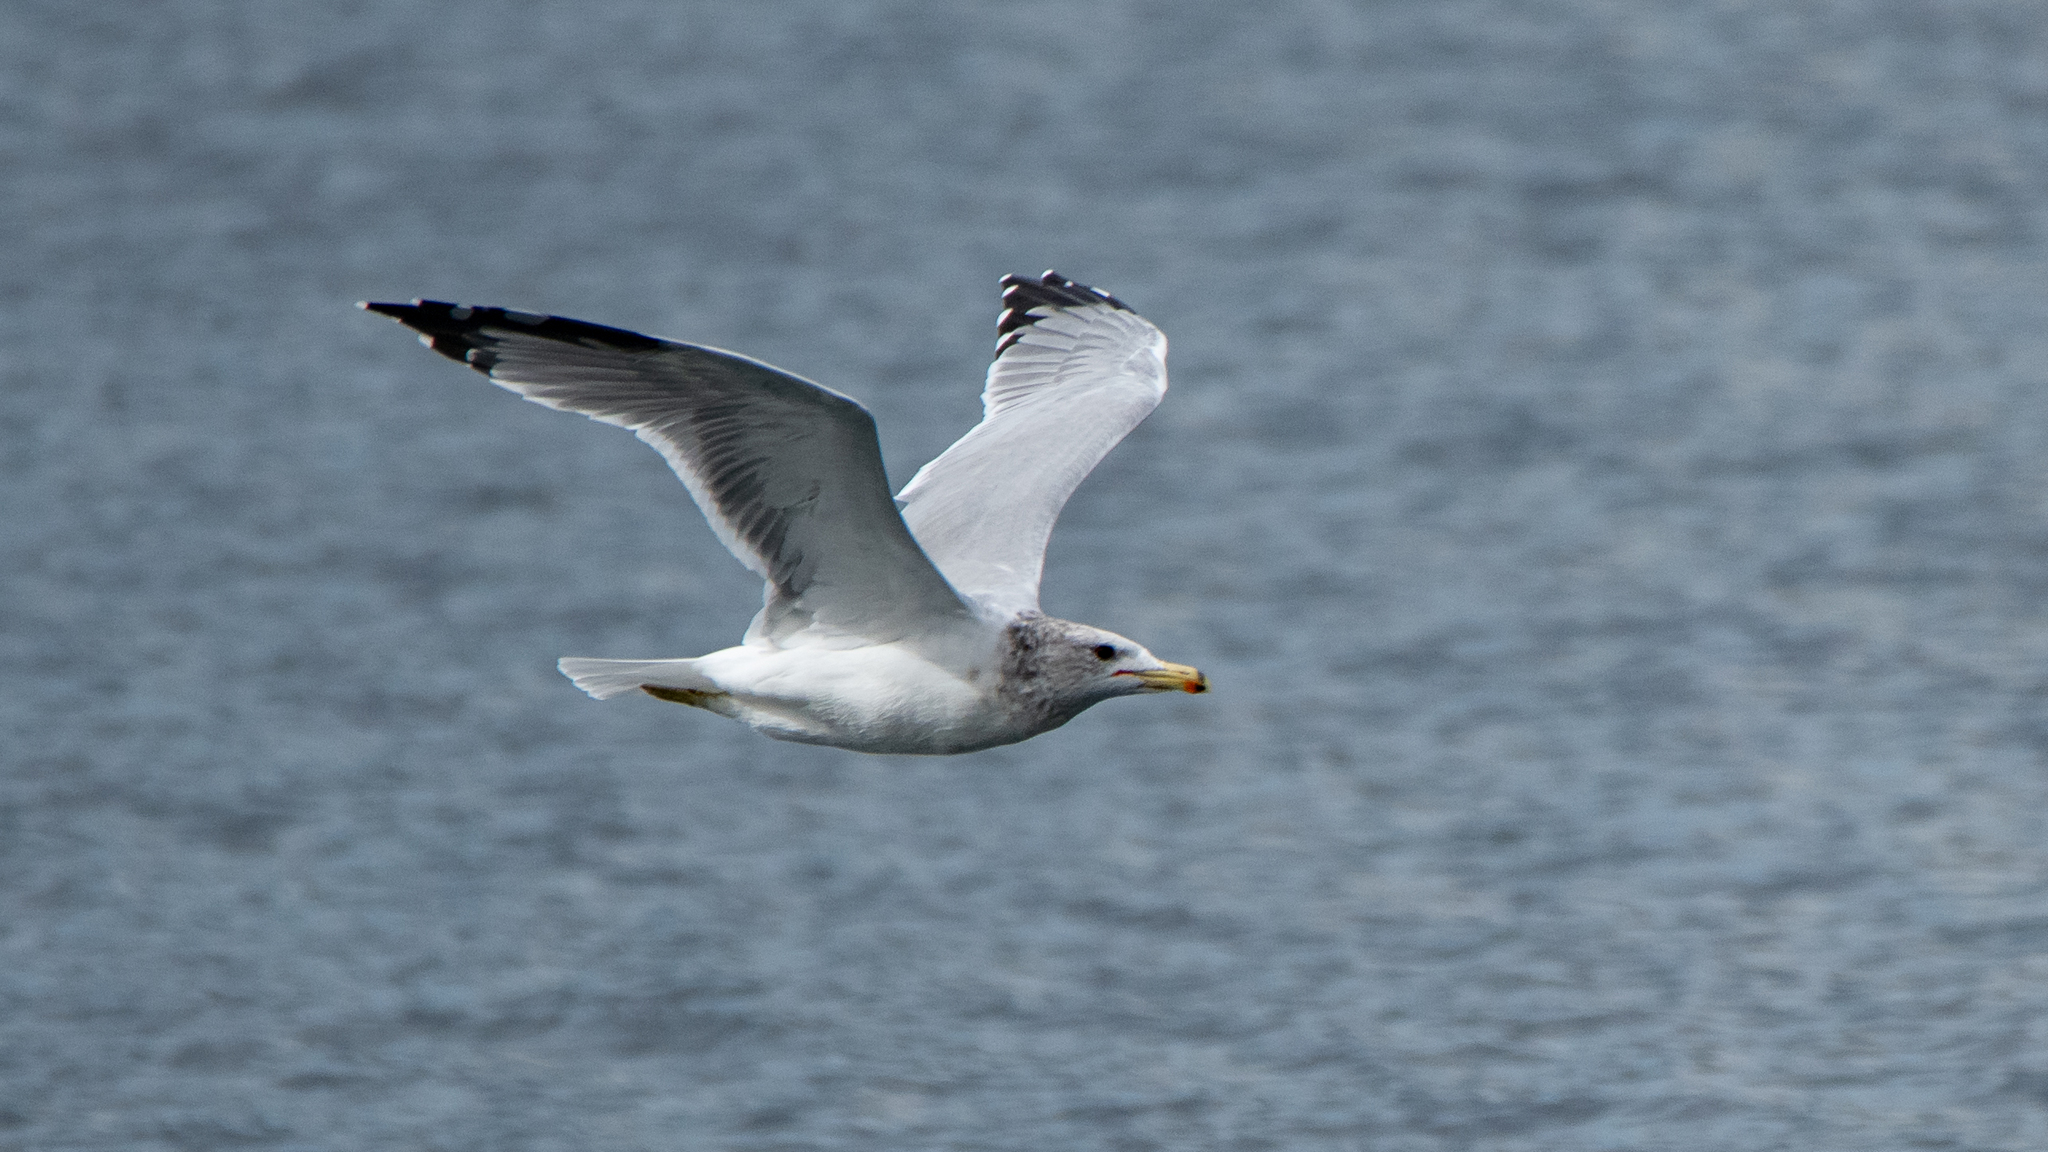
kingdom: Animalia
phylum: Chordata
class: Aves
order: Charadriiformes
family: Laridae
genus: Larus
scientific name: Larus californicus
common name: California gull
